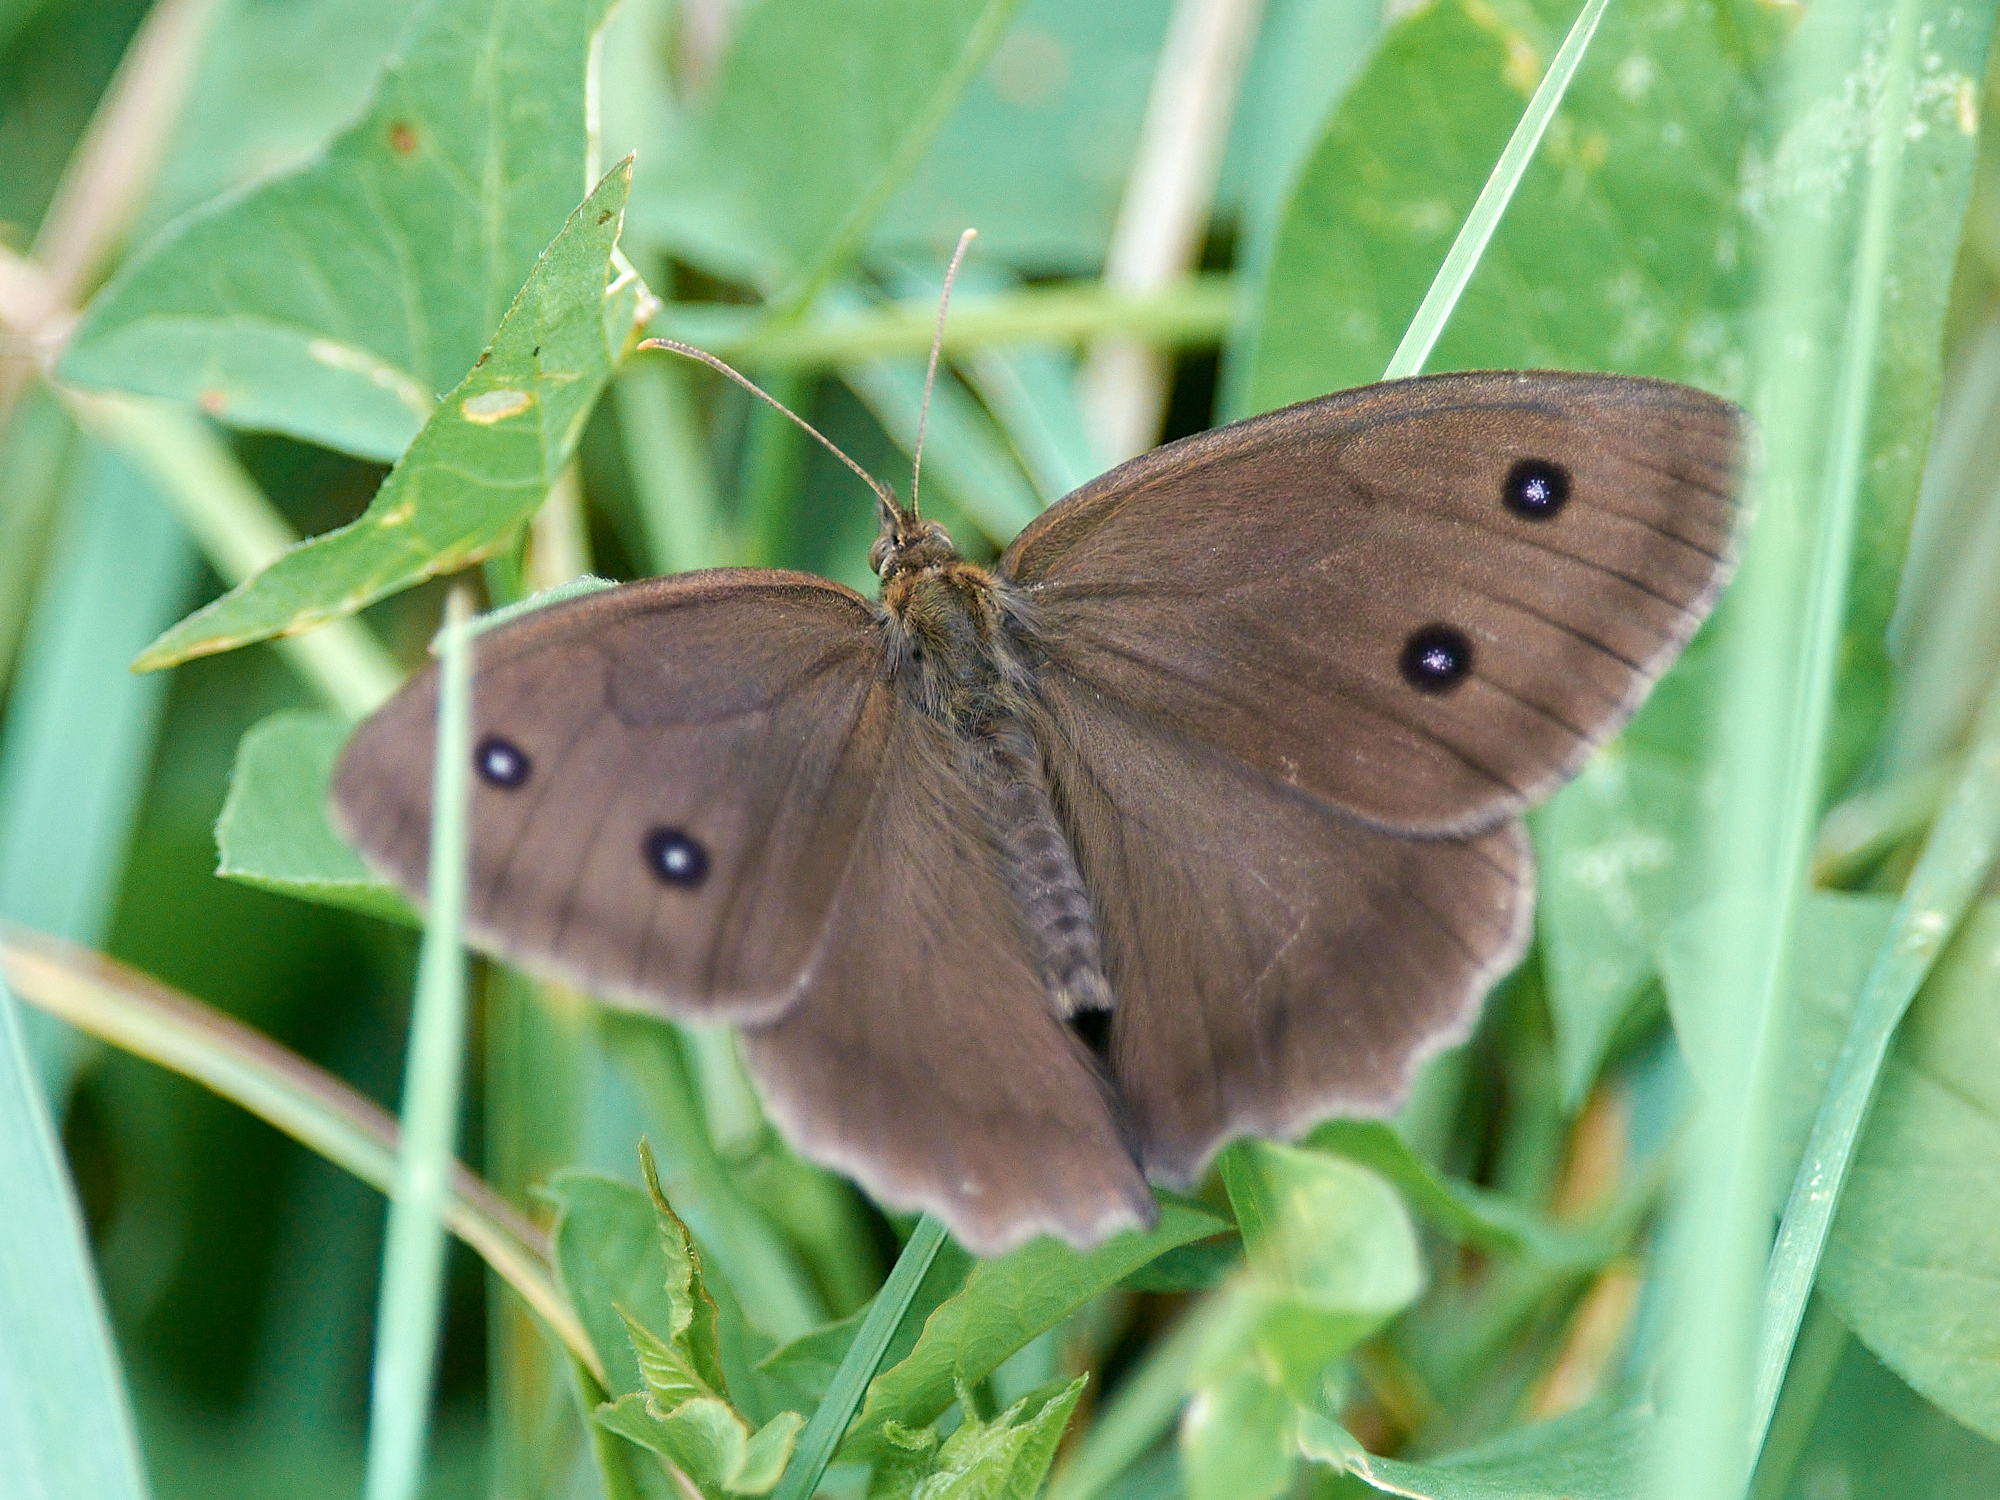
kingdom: Animalia
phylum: Arthropoda
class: Insecta
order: Lepidoptera
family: Nymphalidae
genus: Minois
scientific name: Minois dryas
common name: Dryad
